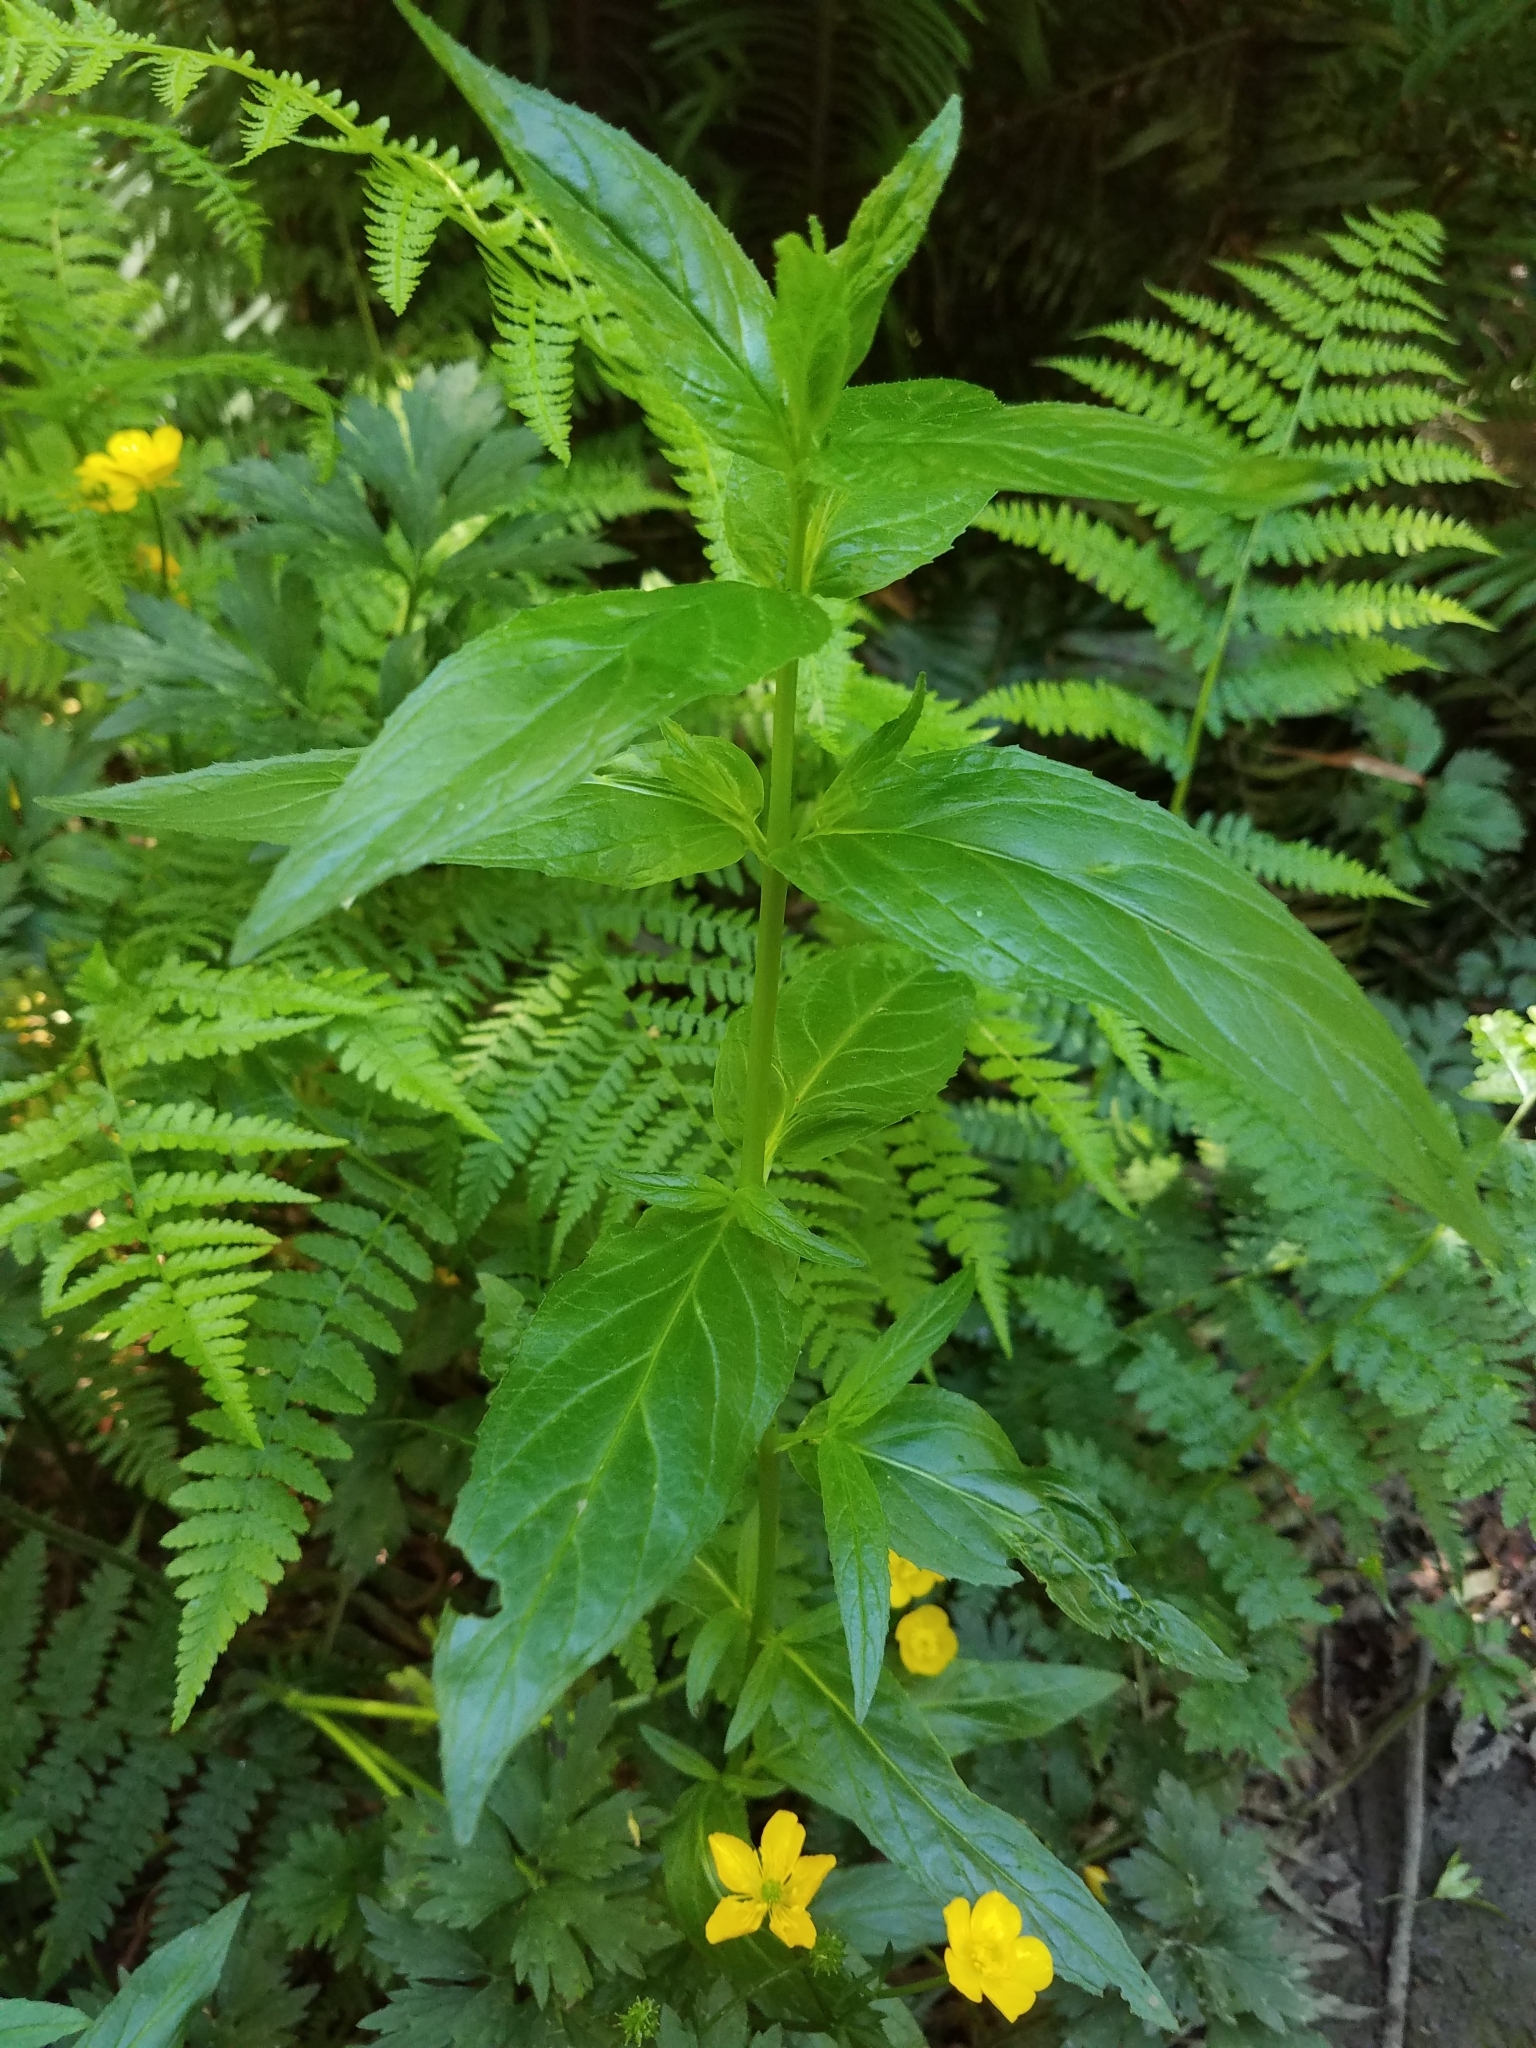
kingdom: Plantae
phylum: Tracheophyta
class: Magnoliopsida
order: Myrtales
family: Onagraceae
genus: Epilobium
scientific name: Epilobium ciliatum
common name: American willowherb
